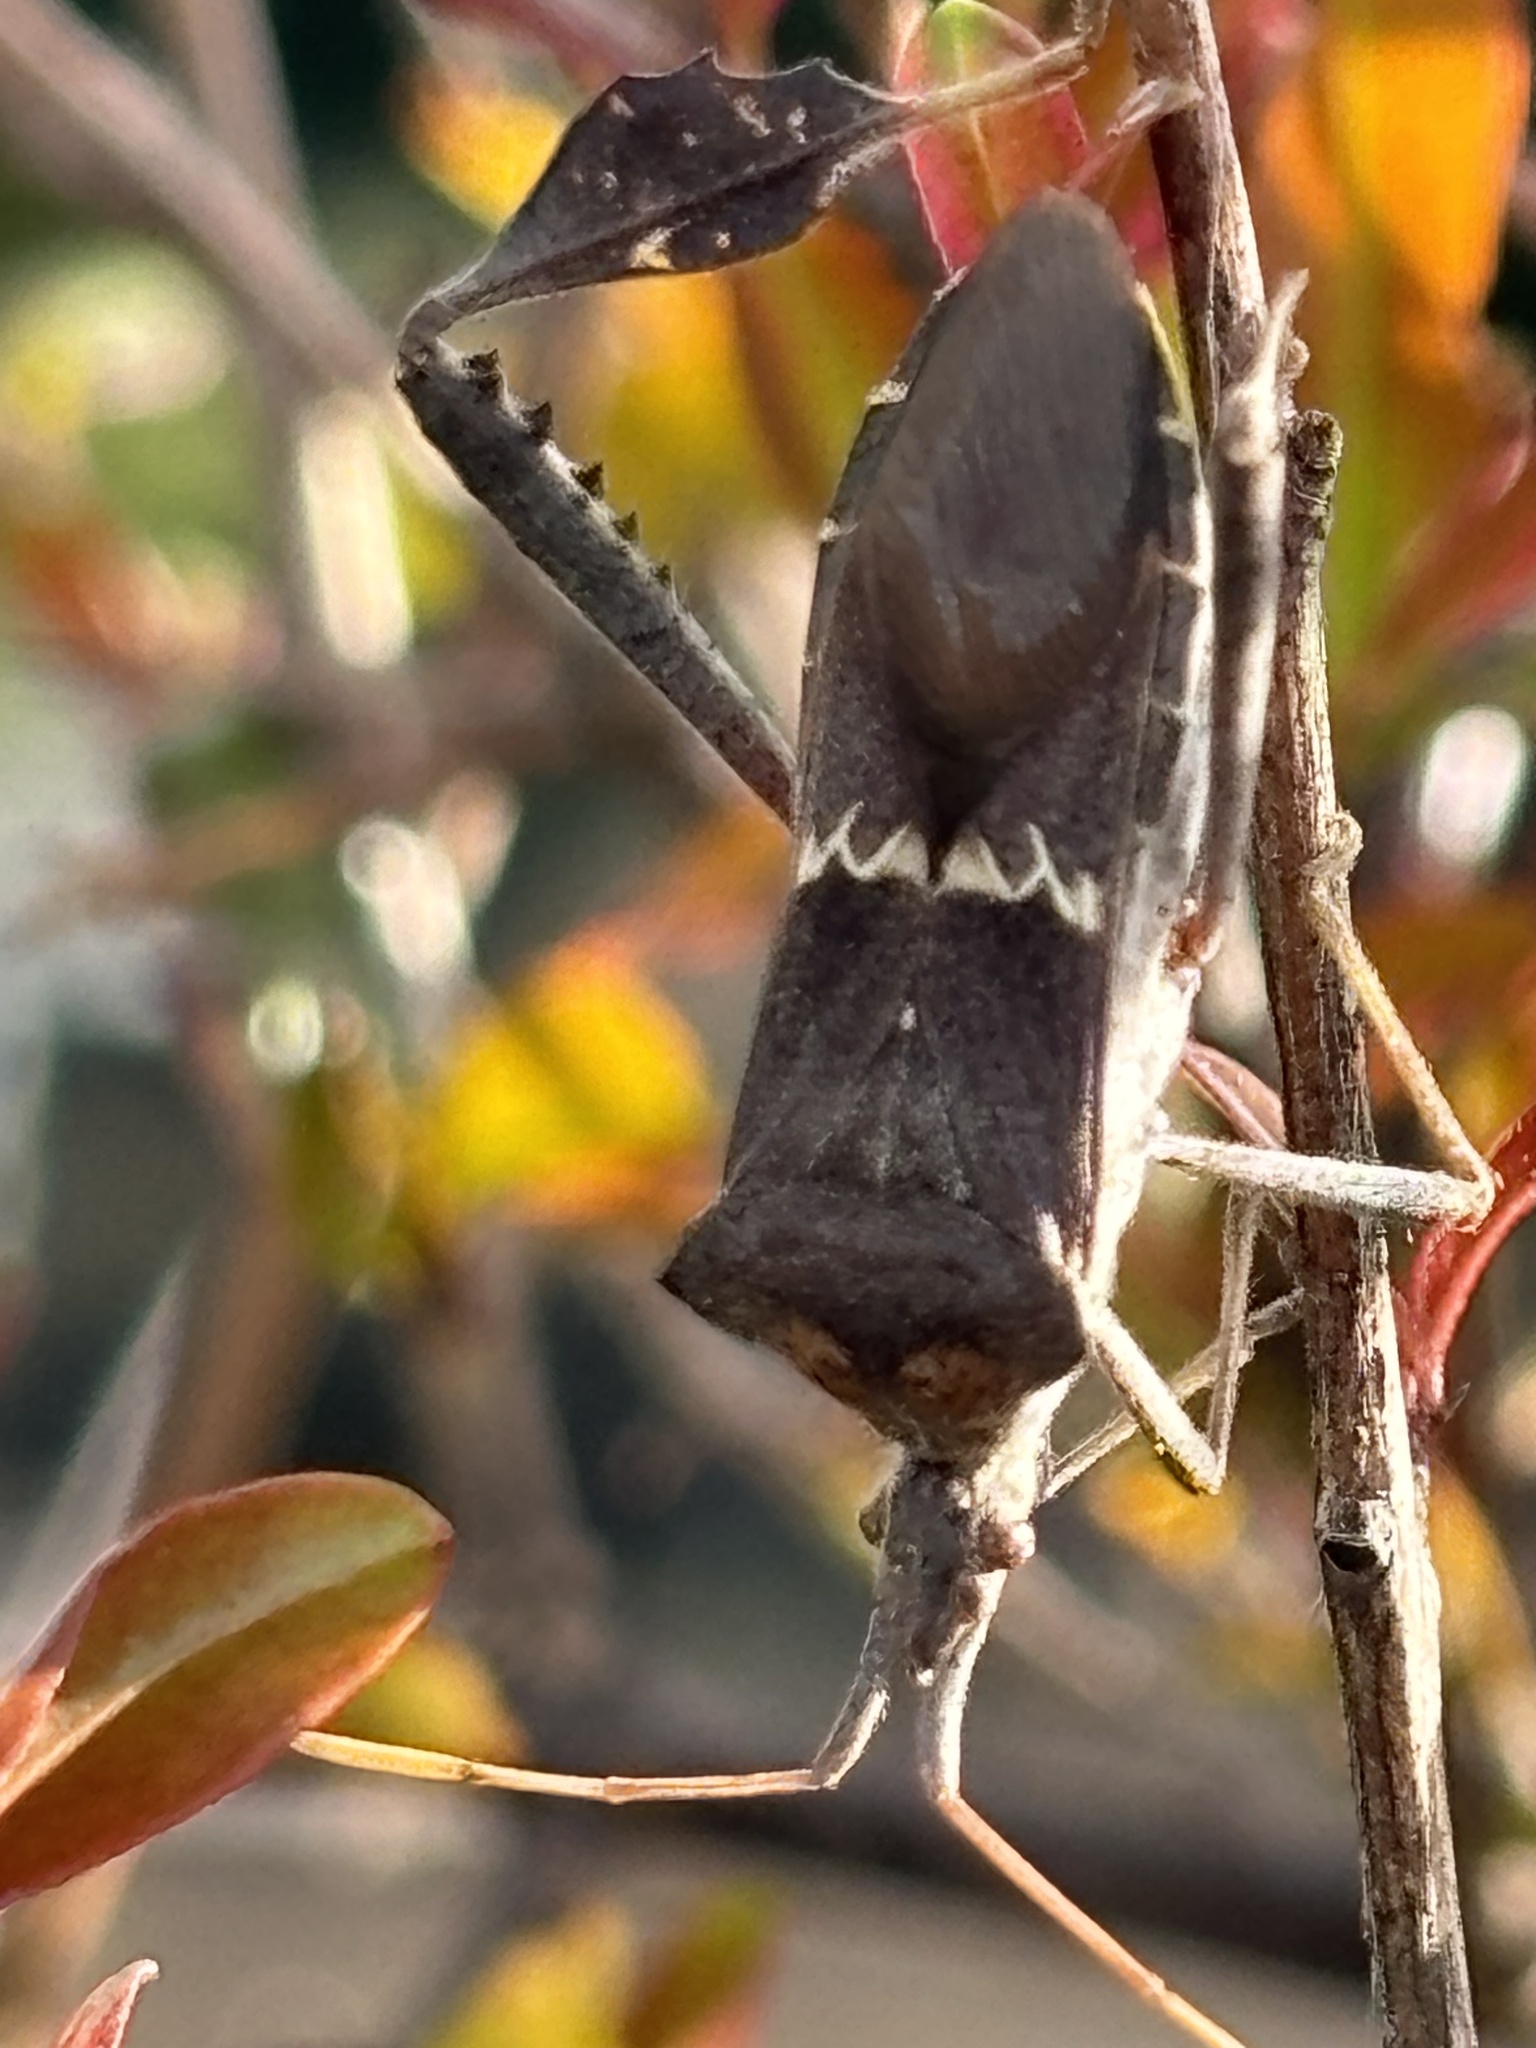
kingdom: Animalia
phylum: Arthropoda
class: Insecta
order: Hemiptera
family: Coreidae
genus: Leptoglossus
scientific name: Leptoglossus zonatus
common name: Large-legged bug
